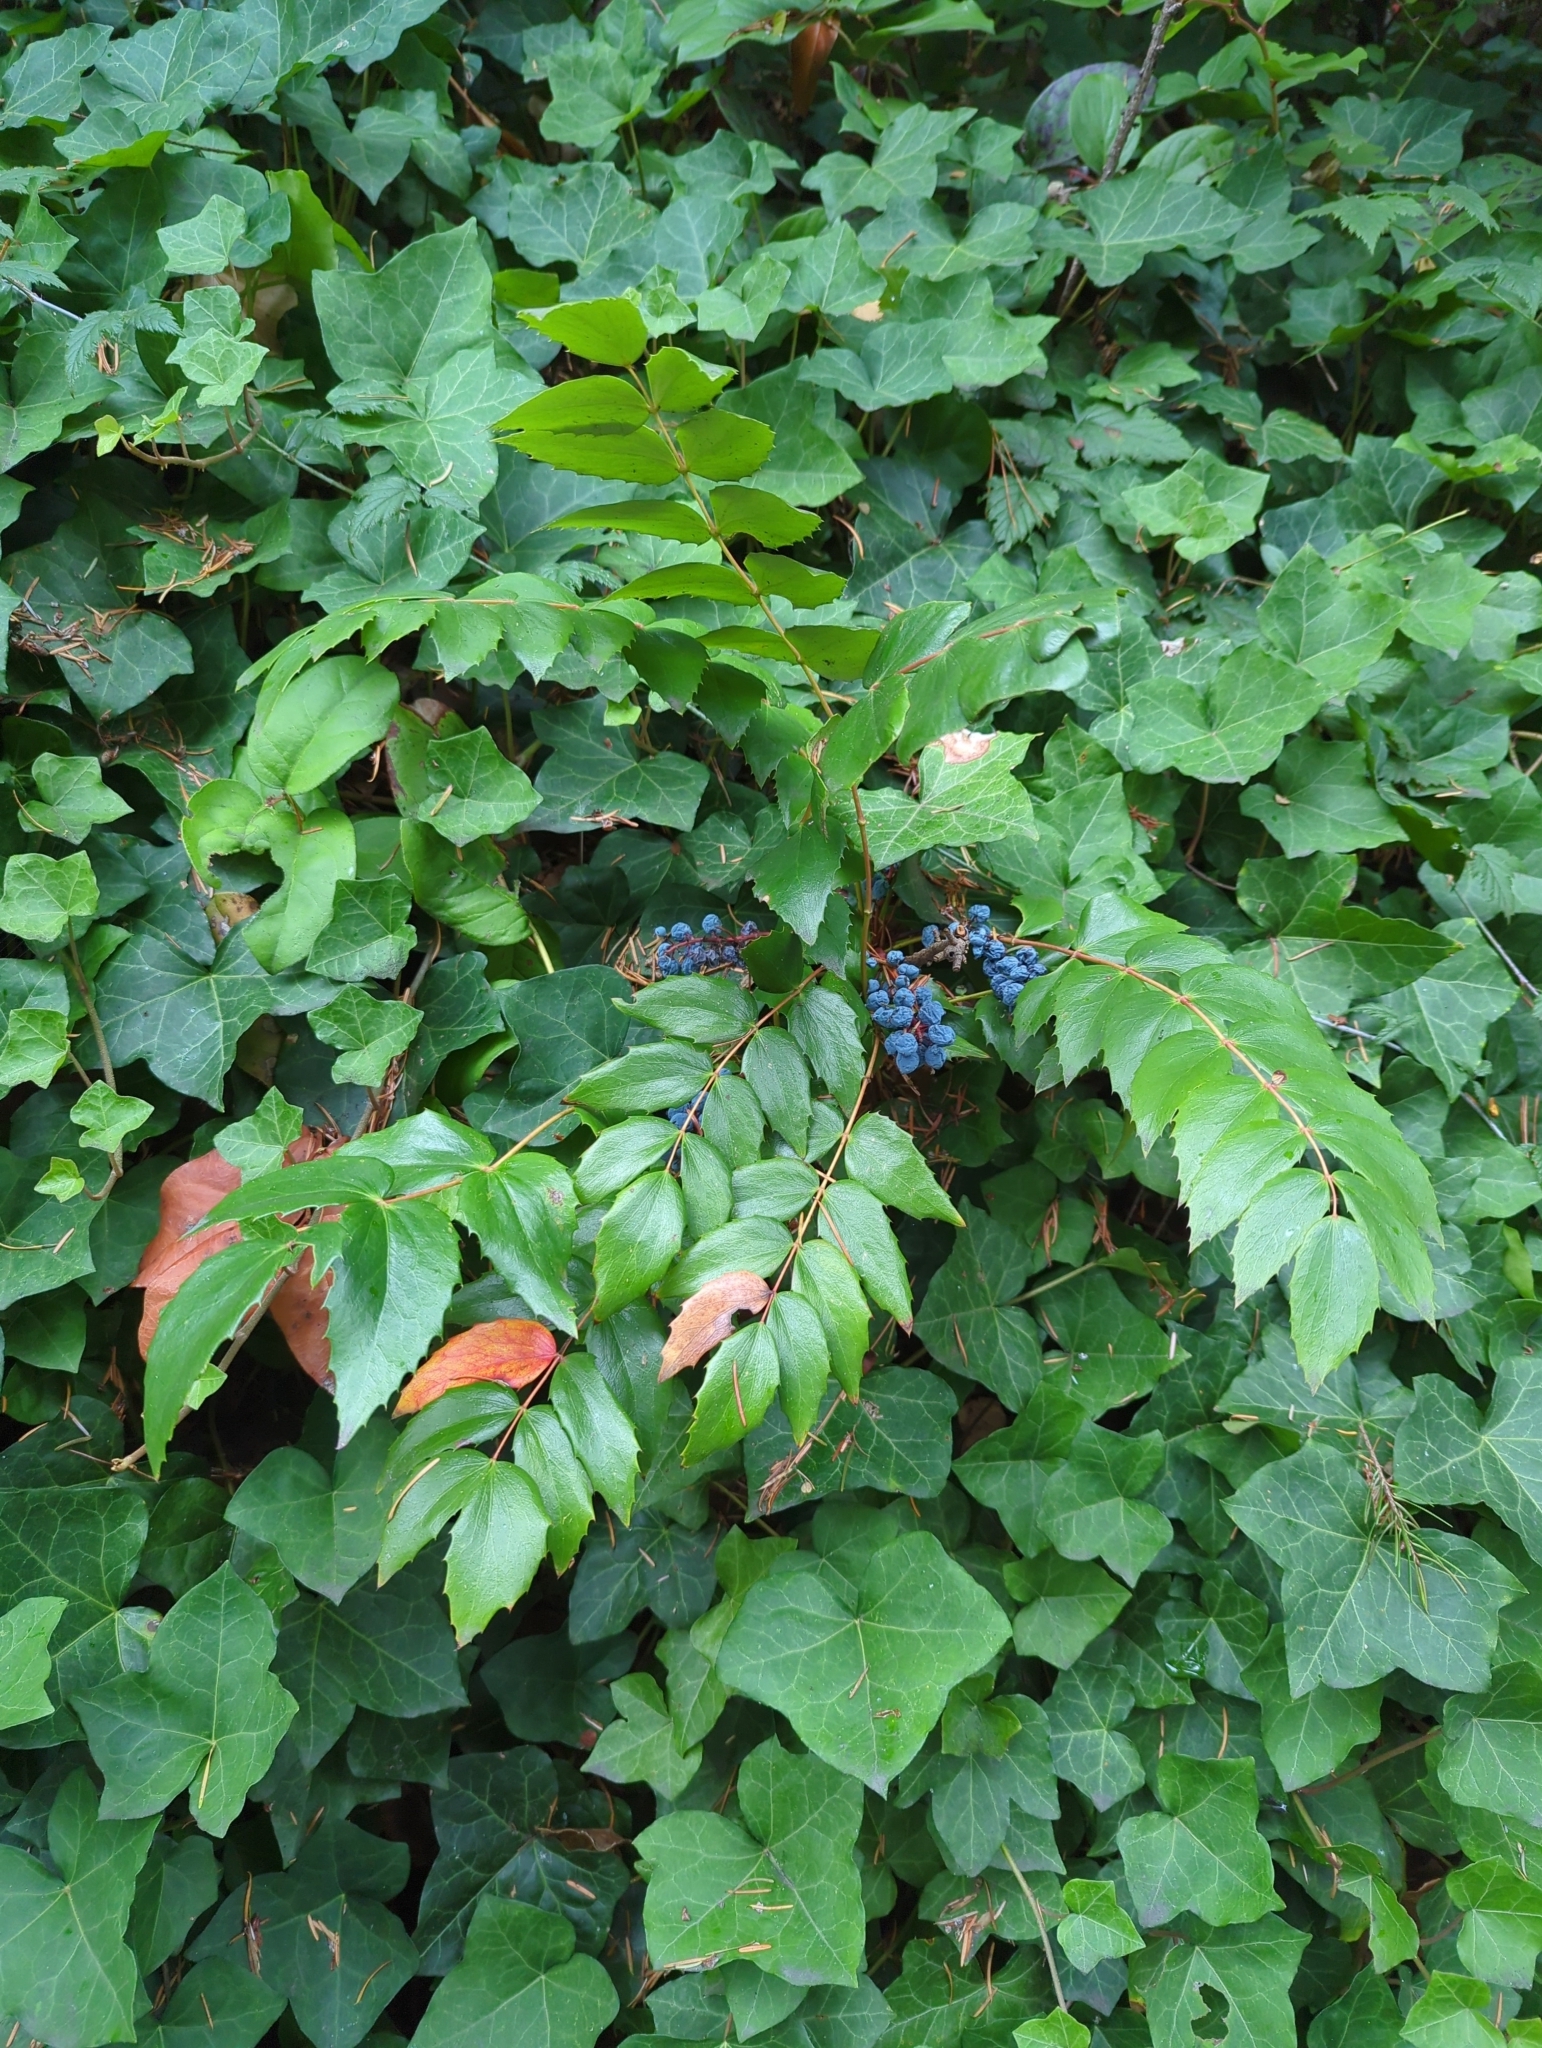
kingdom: Plantae
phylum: Tracheophyta
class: Magnoliopsida
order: Ranunculales
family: Berberidaceae
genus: Mahonia
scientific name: Mahonia nervosa
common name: Cascade oregon-grape
